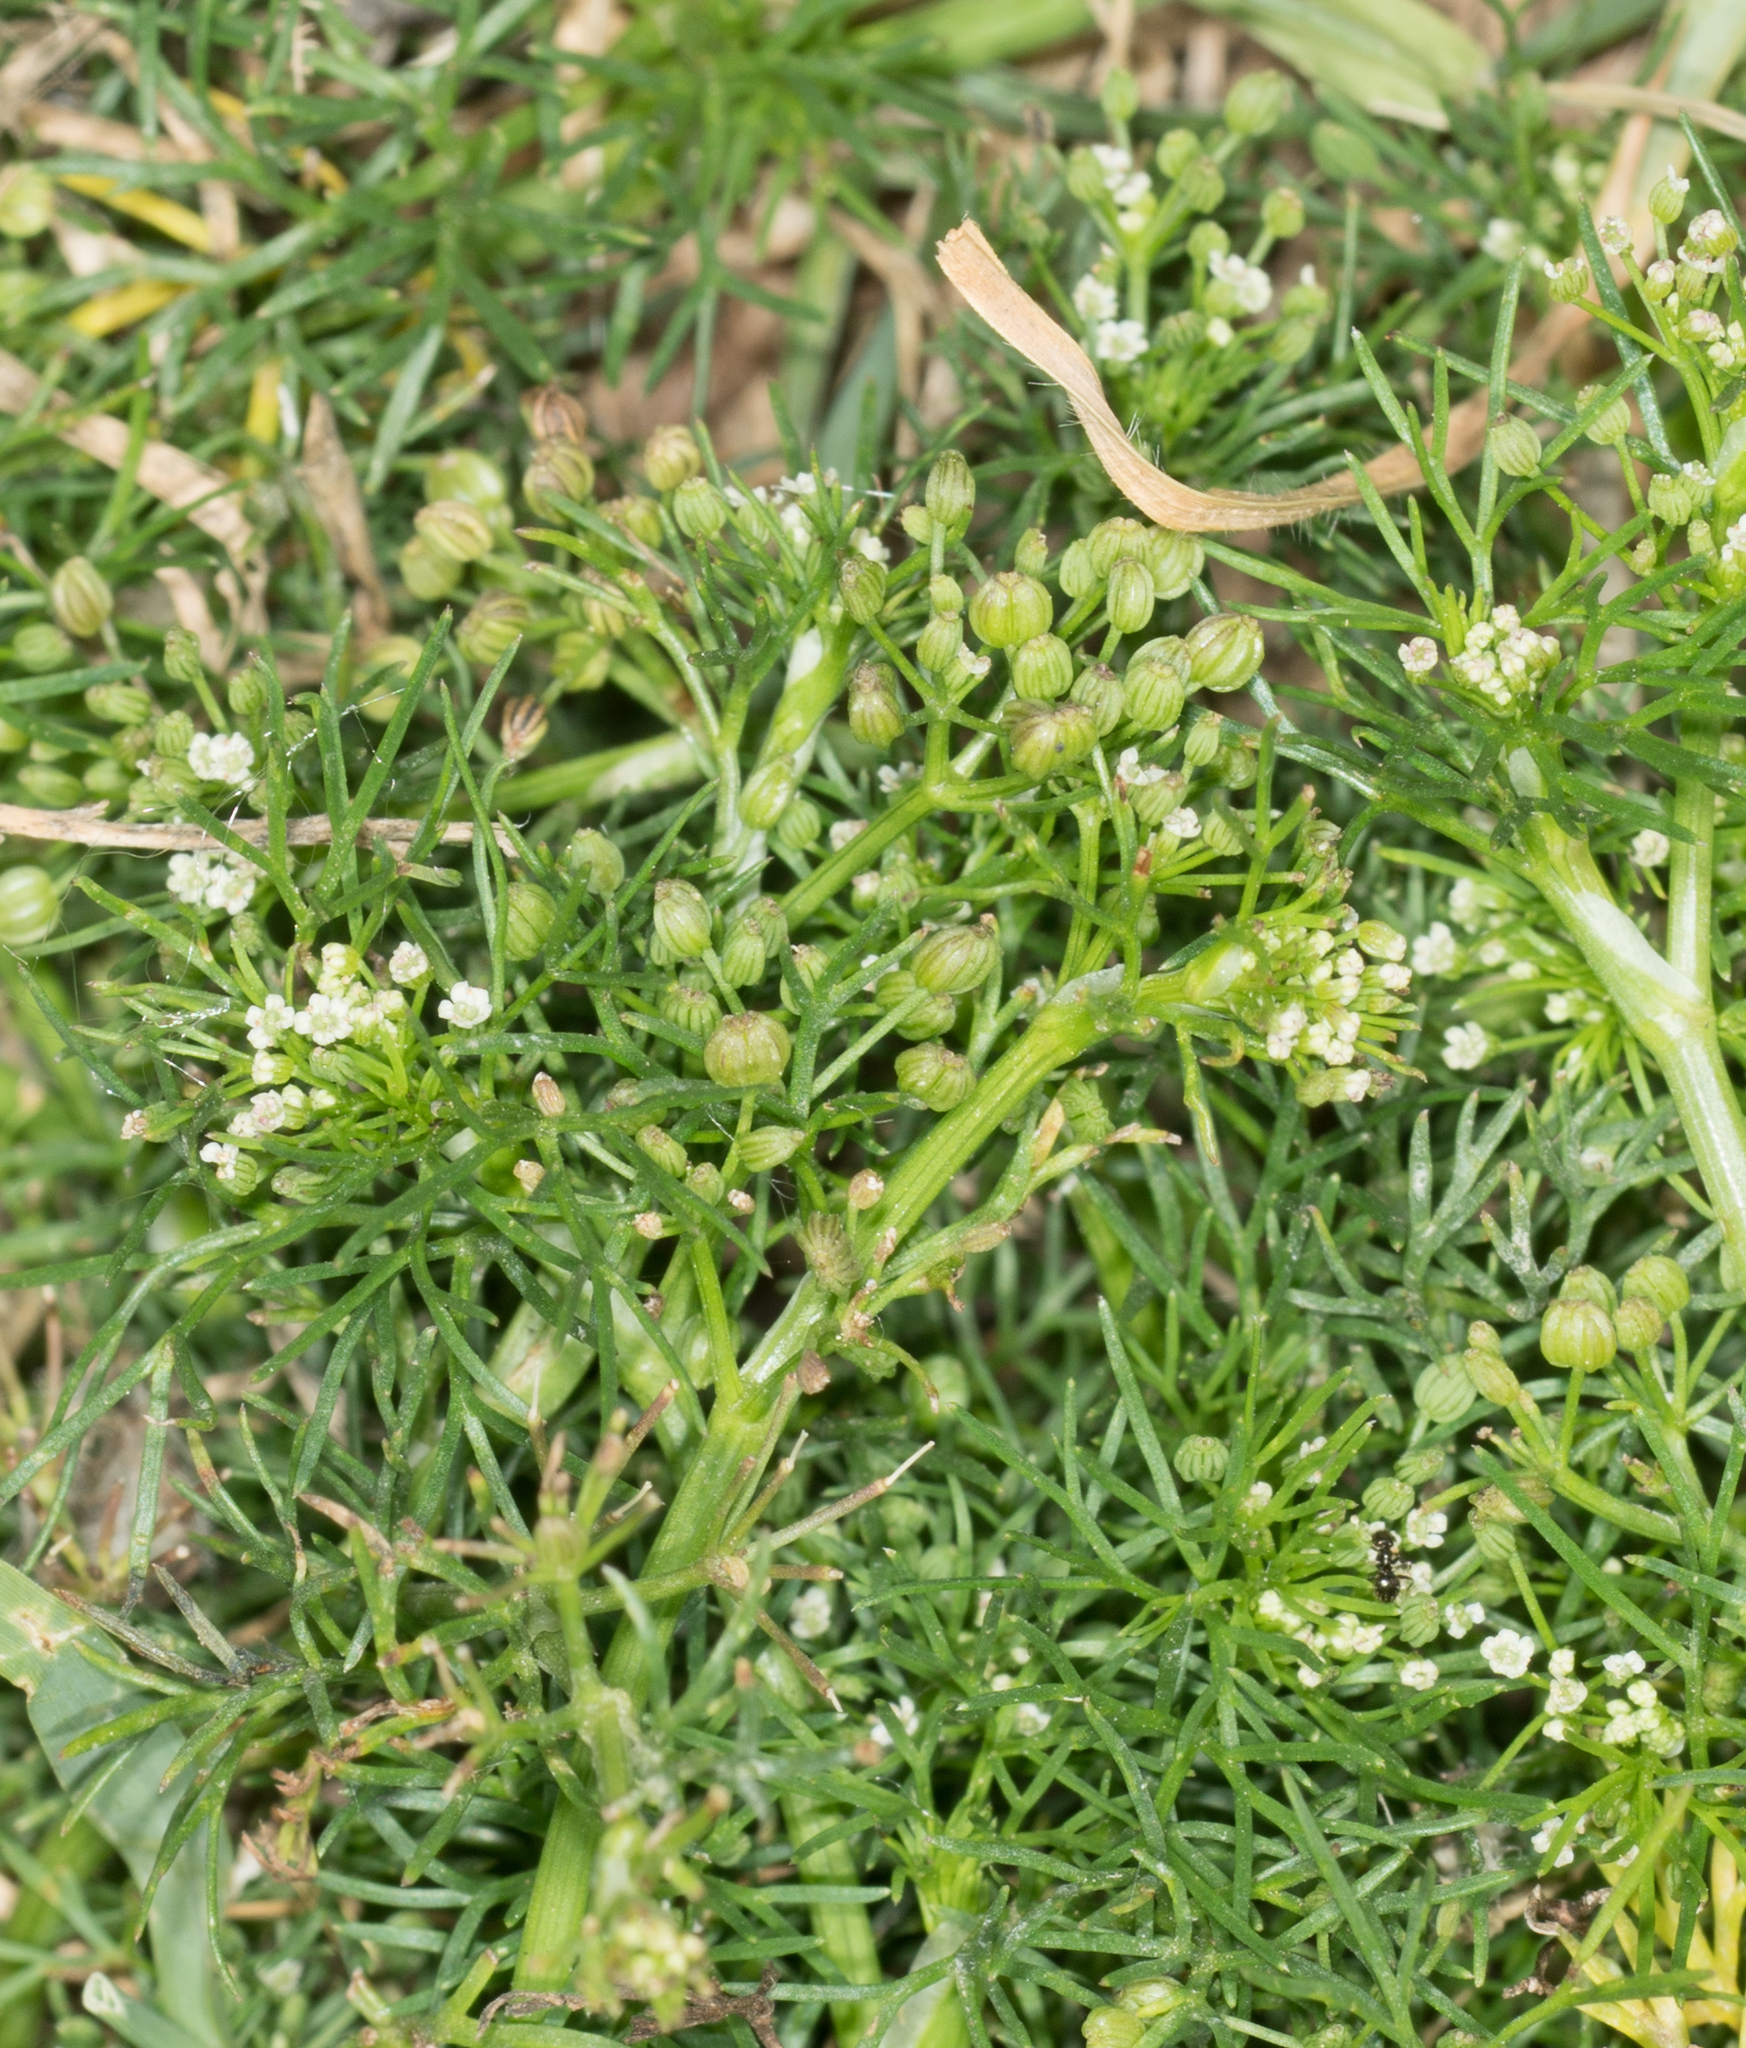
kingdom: Plantae
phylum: Tracheophyta
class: Magnoliopsida
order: Apiales
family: Apiaceae
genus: Cyclospermum
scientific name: Cyclospermum leptophyllum
